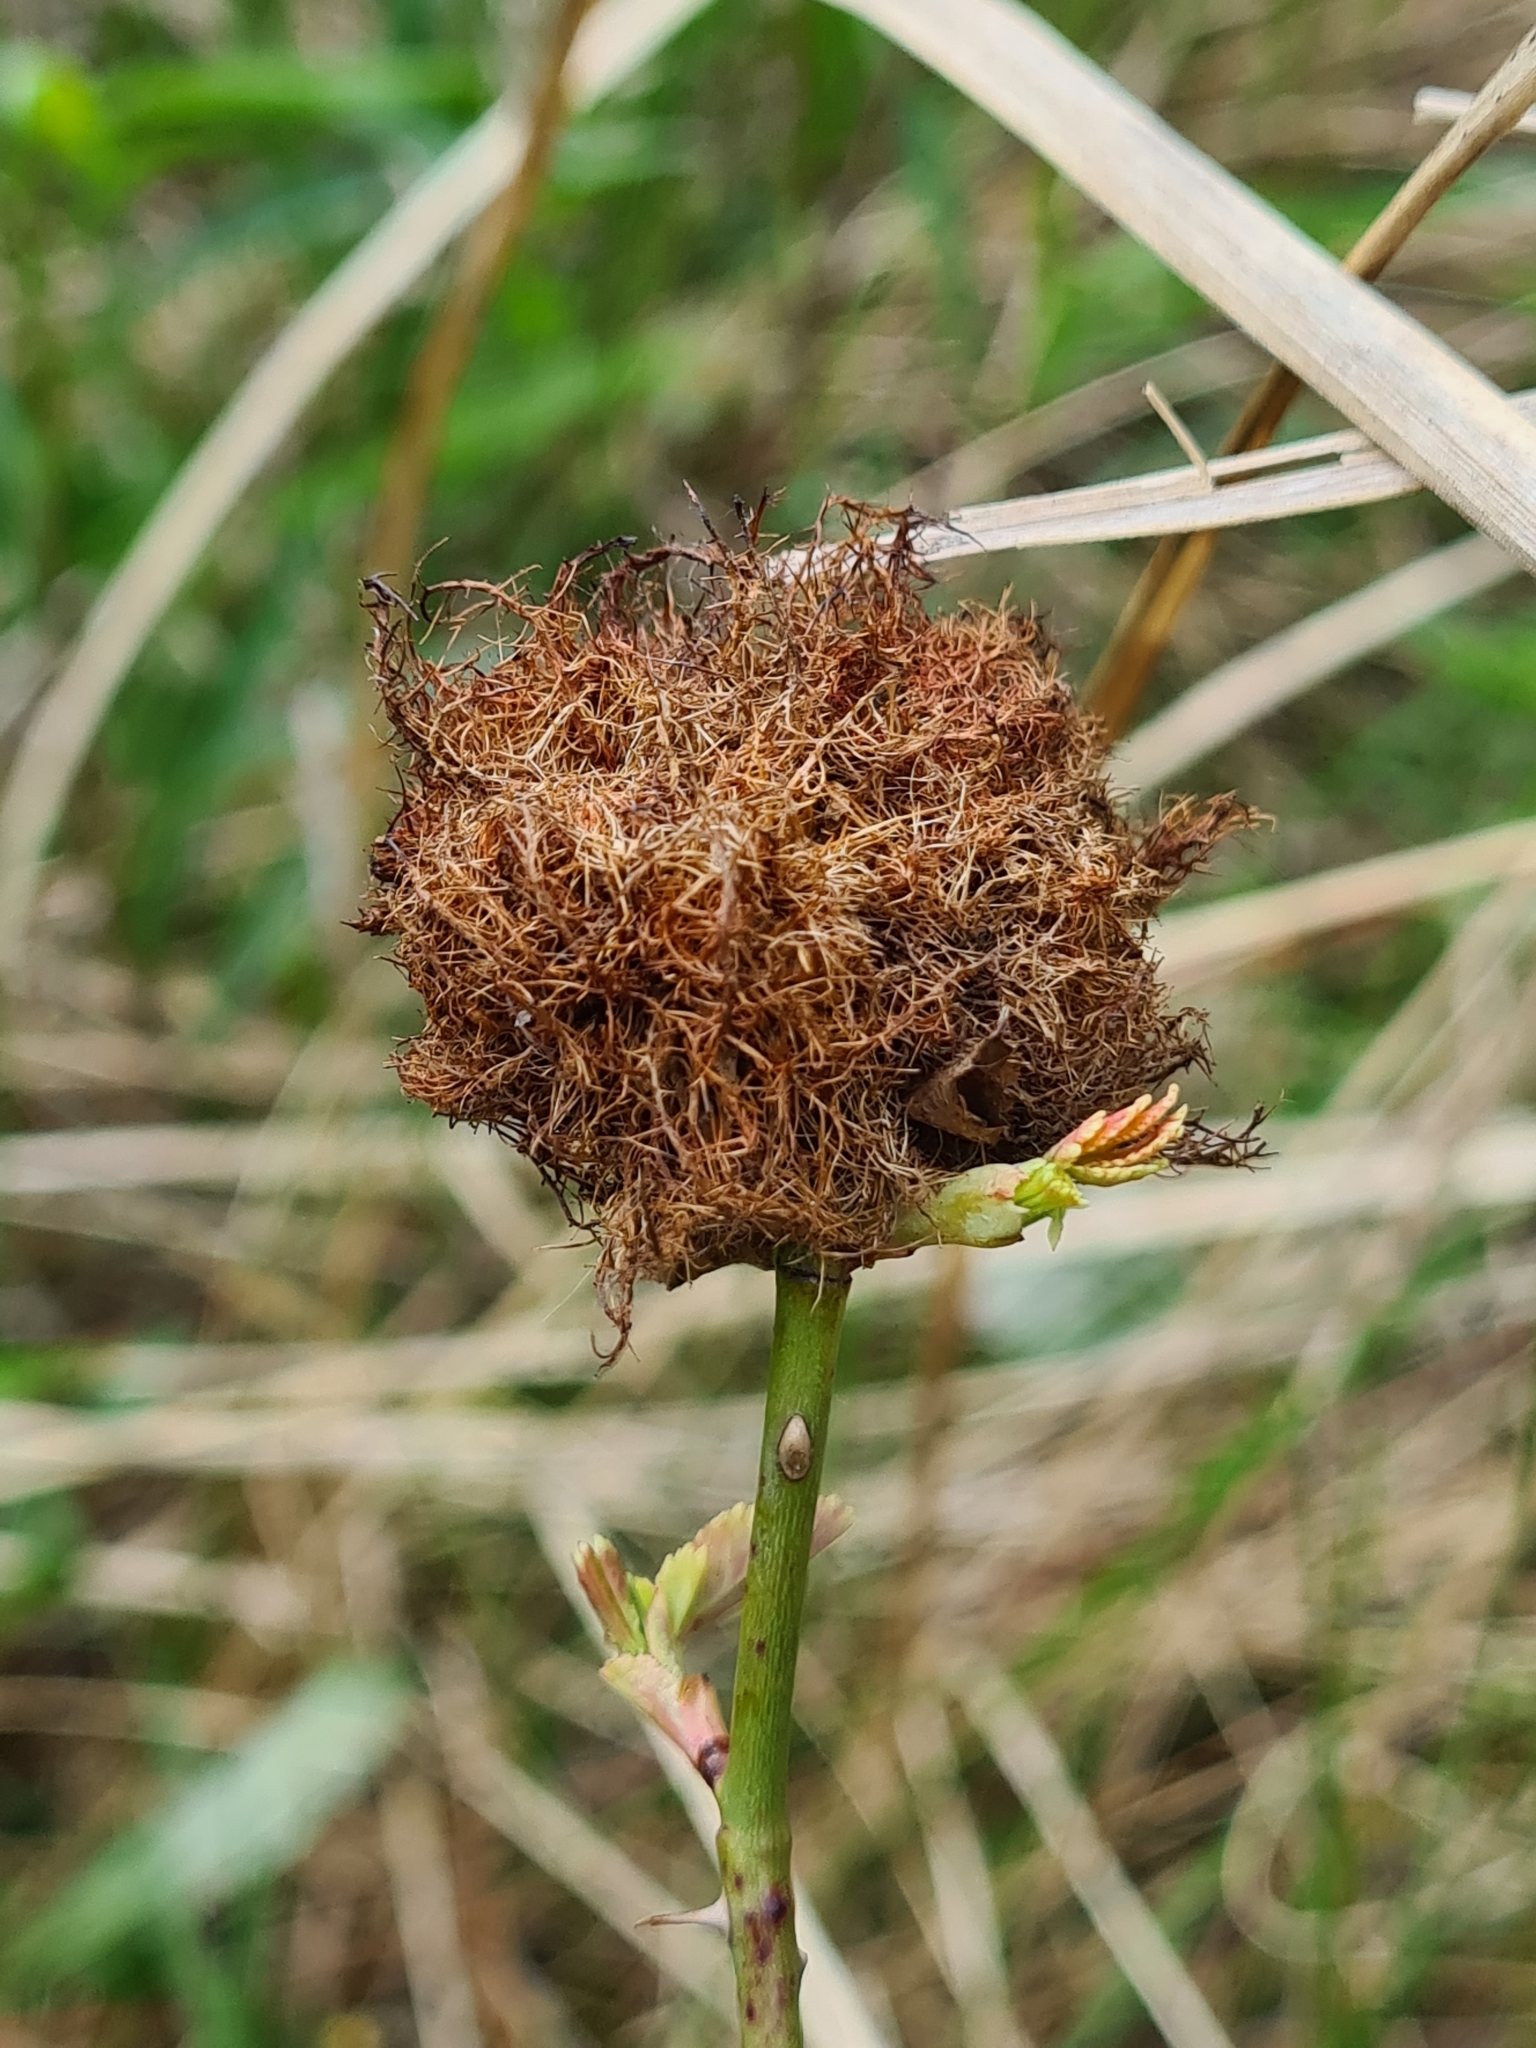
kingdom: Animalia
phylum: Arthropoda
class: Insecta
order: Hymenoptera
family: Cynipidae
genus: Diplolepis
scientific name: Diplolepis rosae
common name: Bedeguar gall
